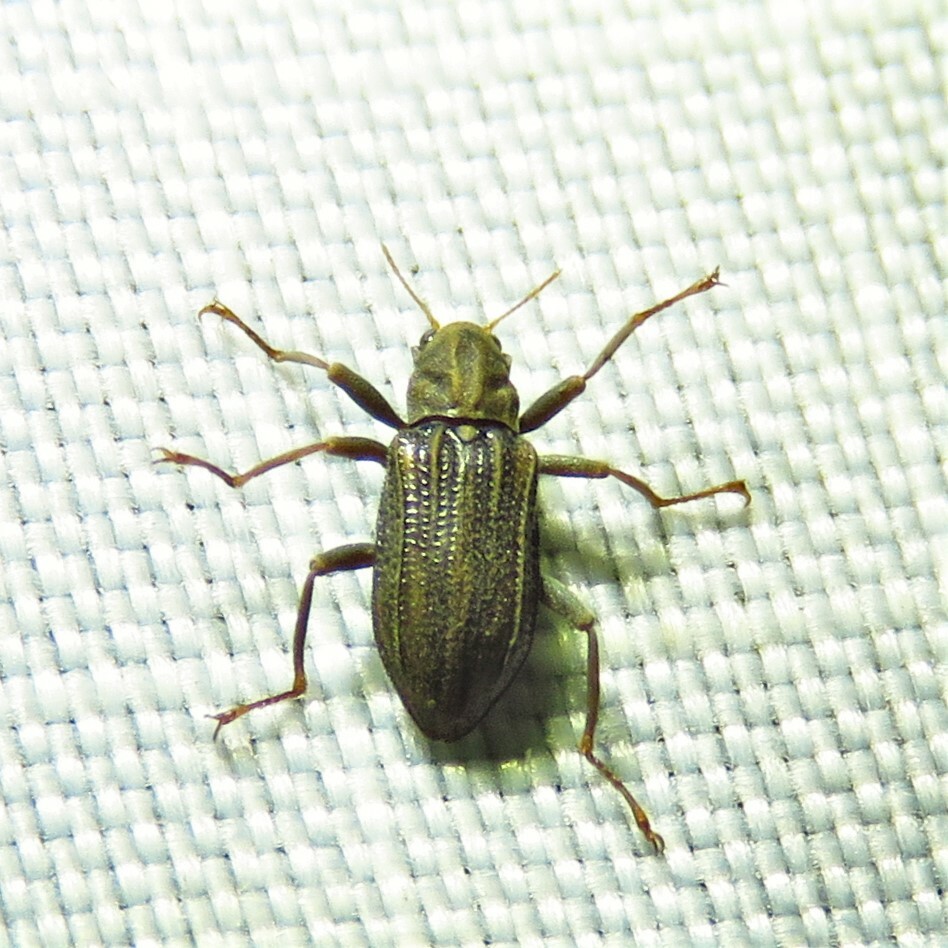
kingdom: Animalia
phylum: Arthropoda
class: Insecta
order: Coleoptera
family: Elmidae
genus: Stenelmis
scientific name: Stenelmis
